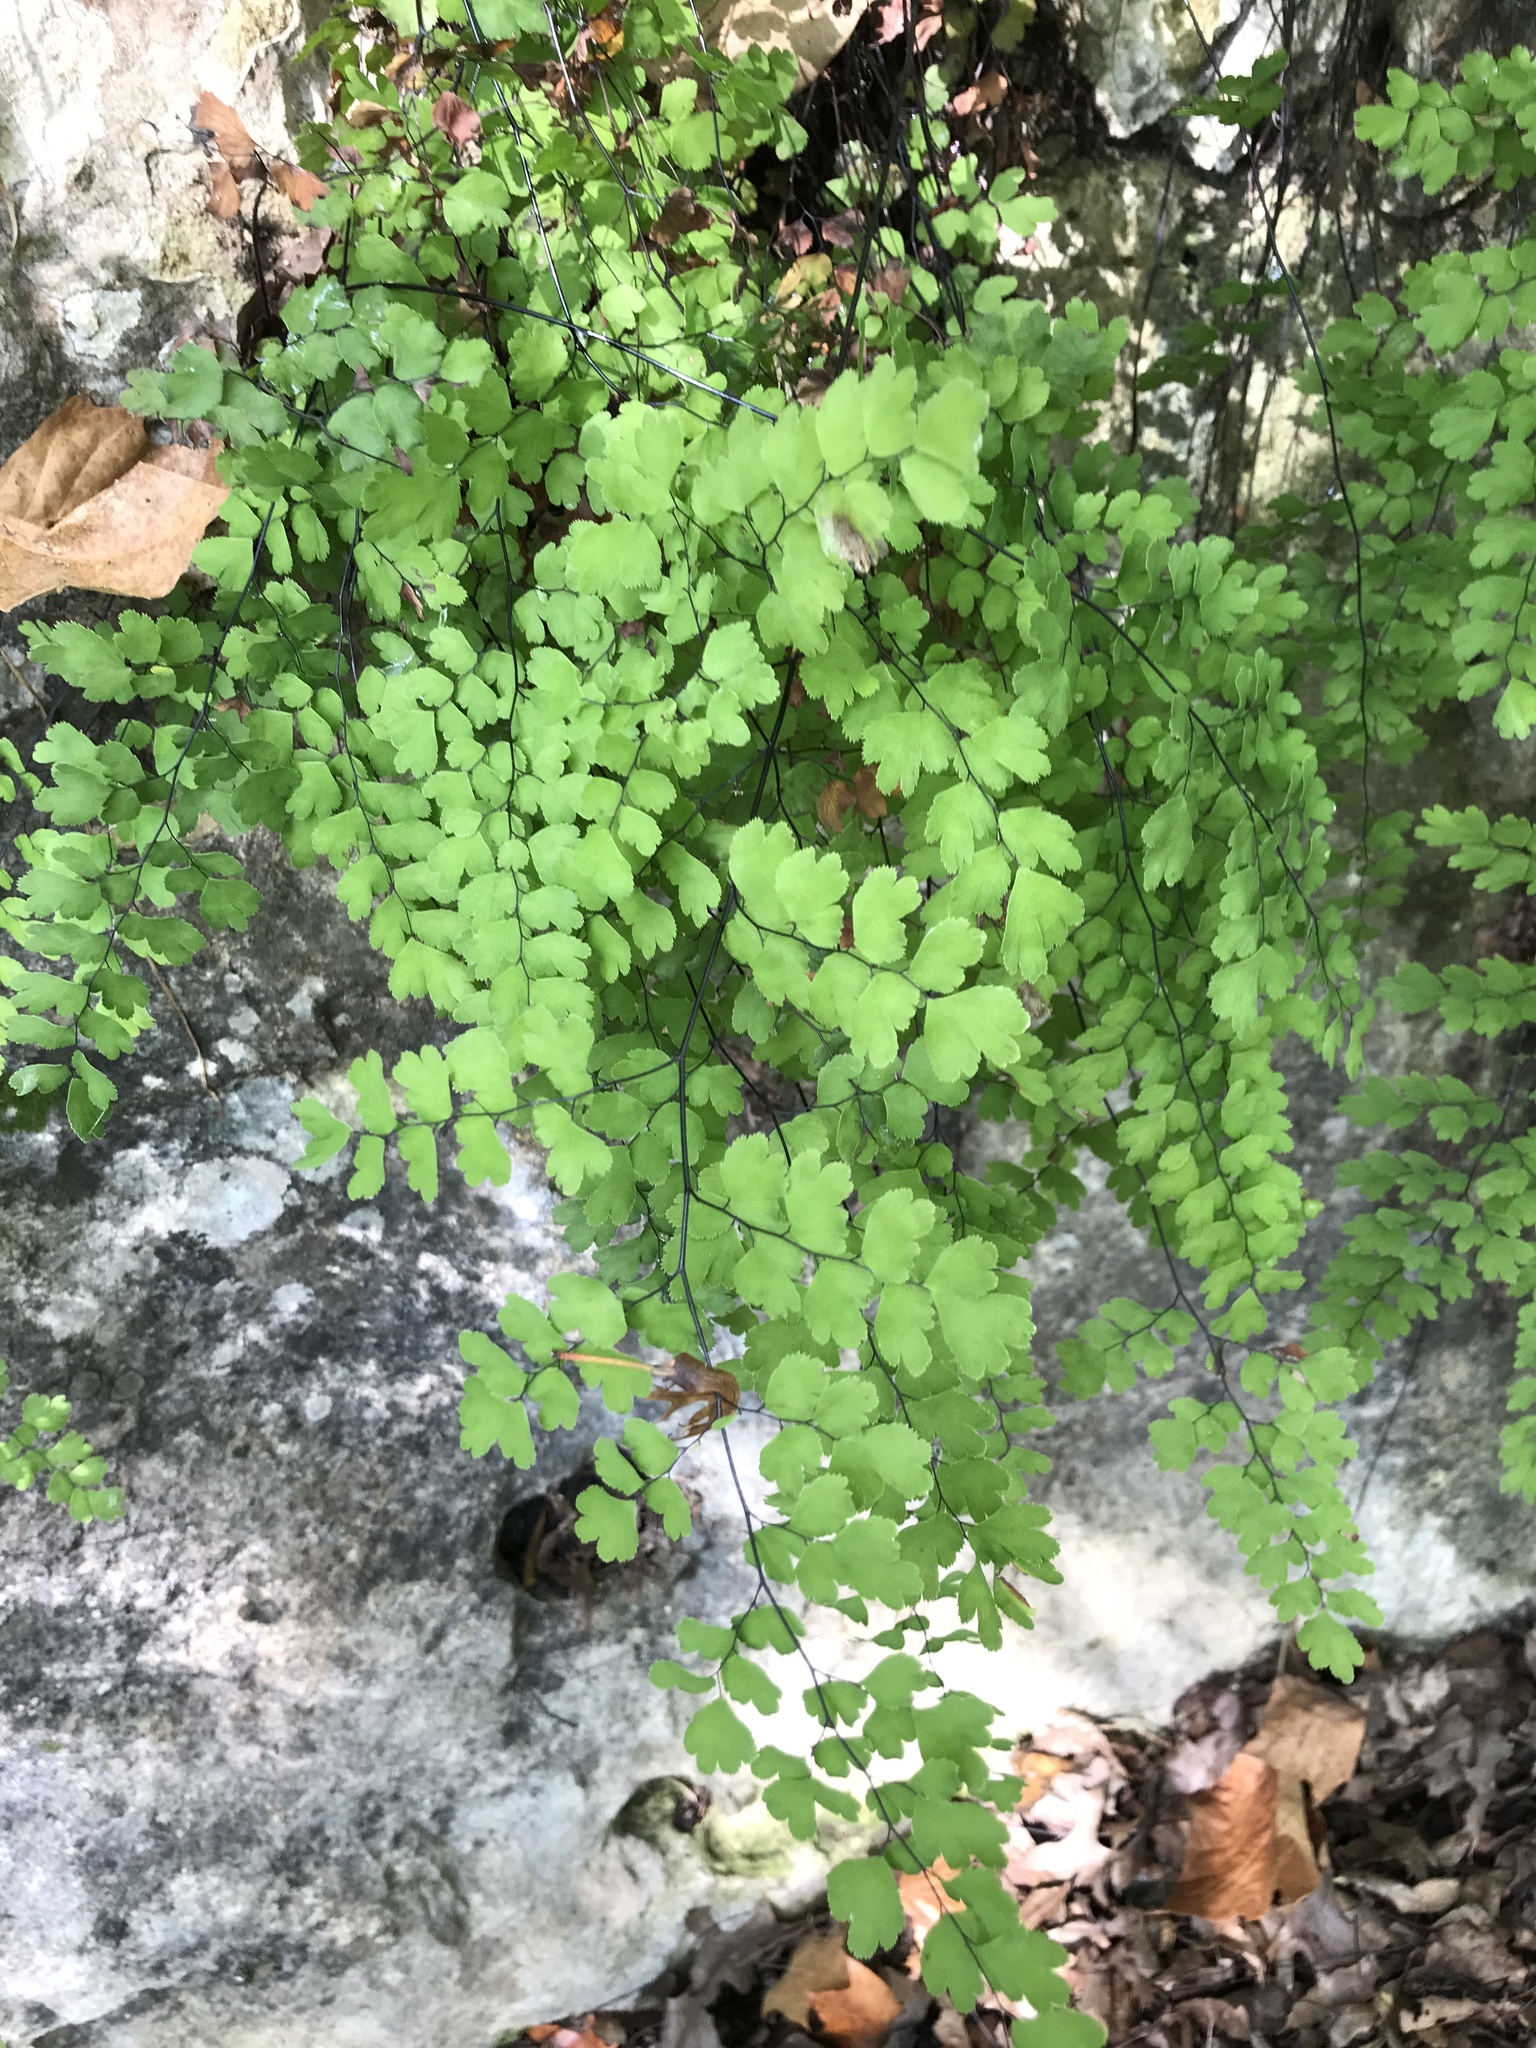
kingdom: Plantae
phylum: Tracheophyta
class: Polypodiopsida
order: Polypodiales
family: Pteridaceae
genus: Adiantum
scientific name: Adiantum capillus-veneris
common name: Maidenhair fern
